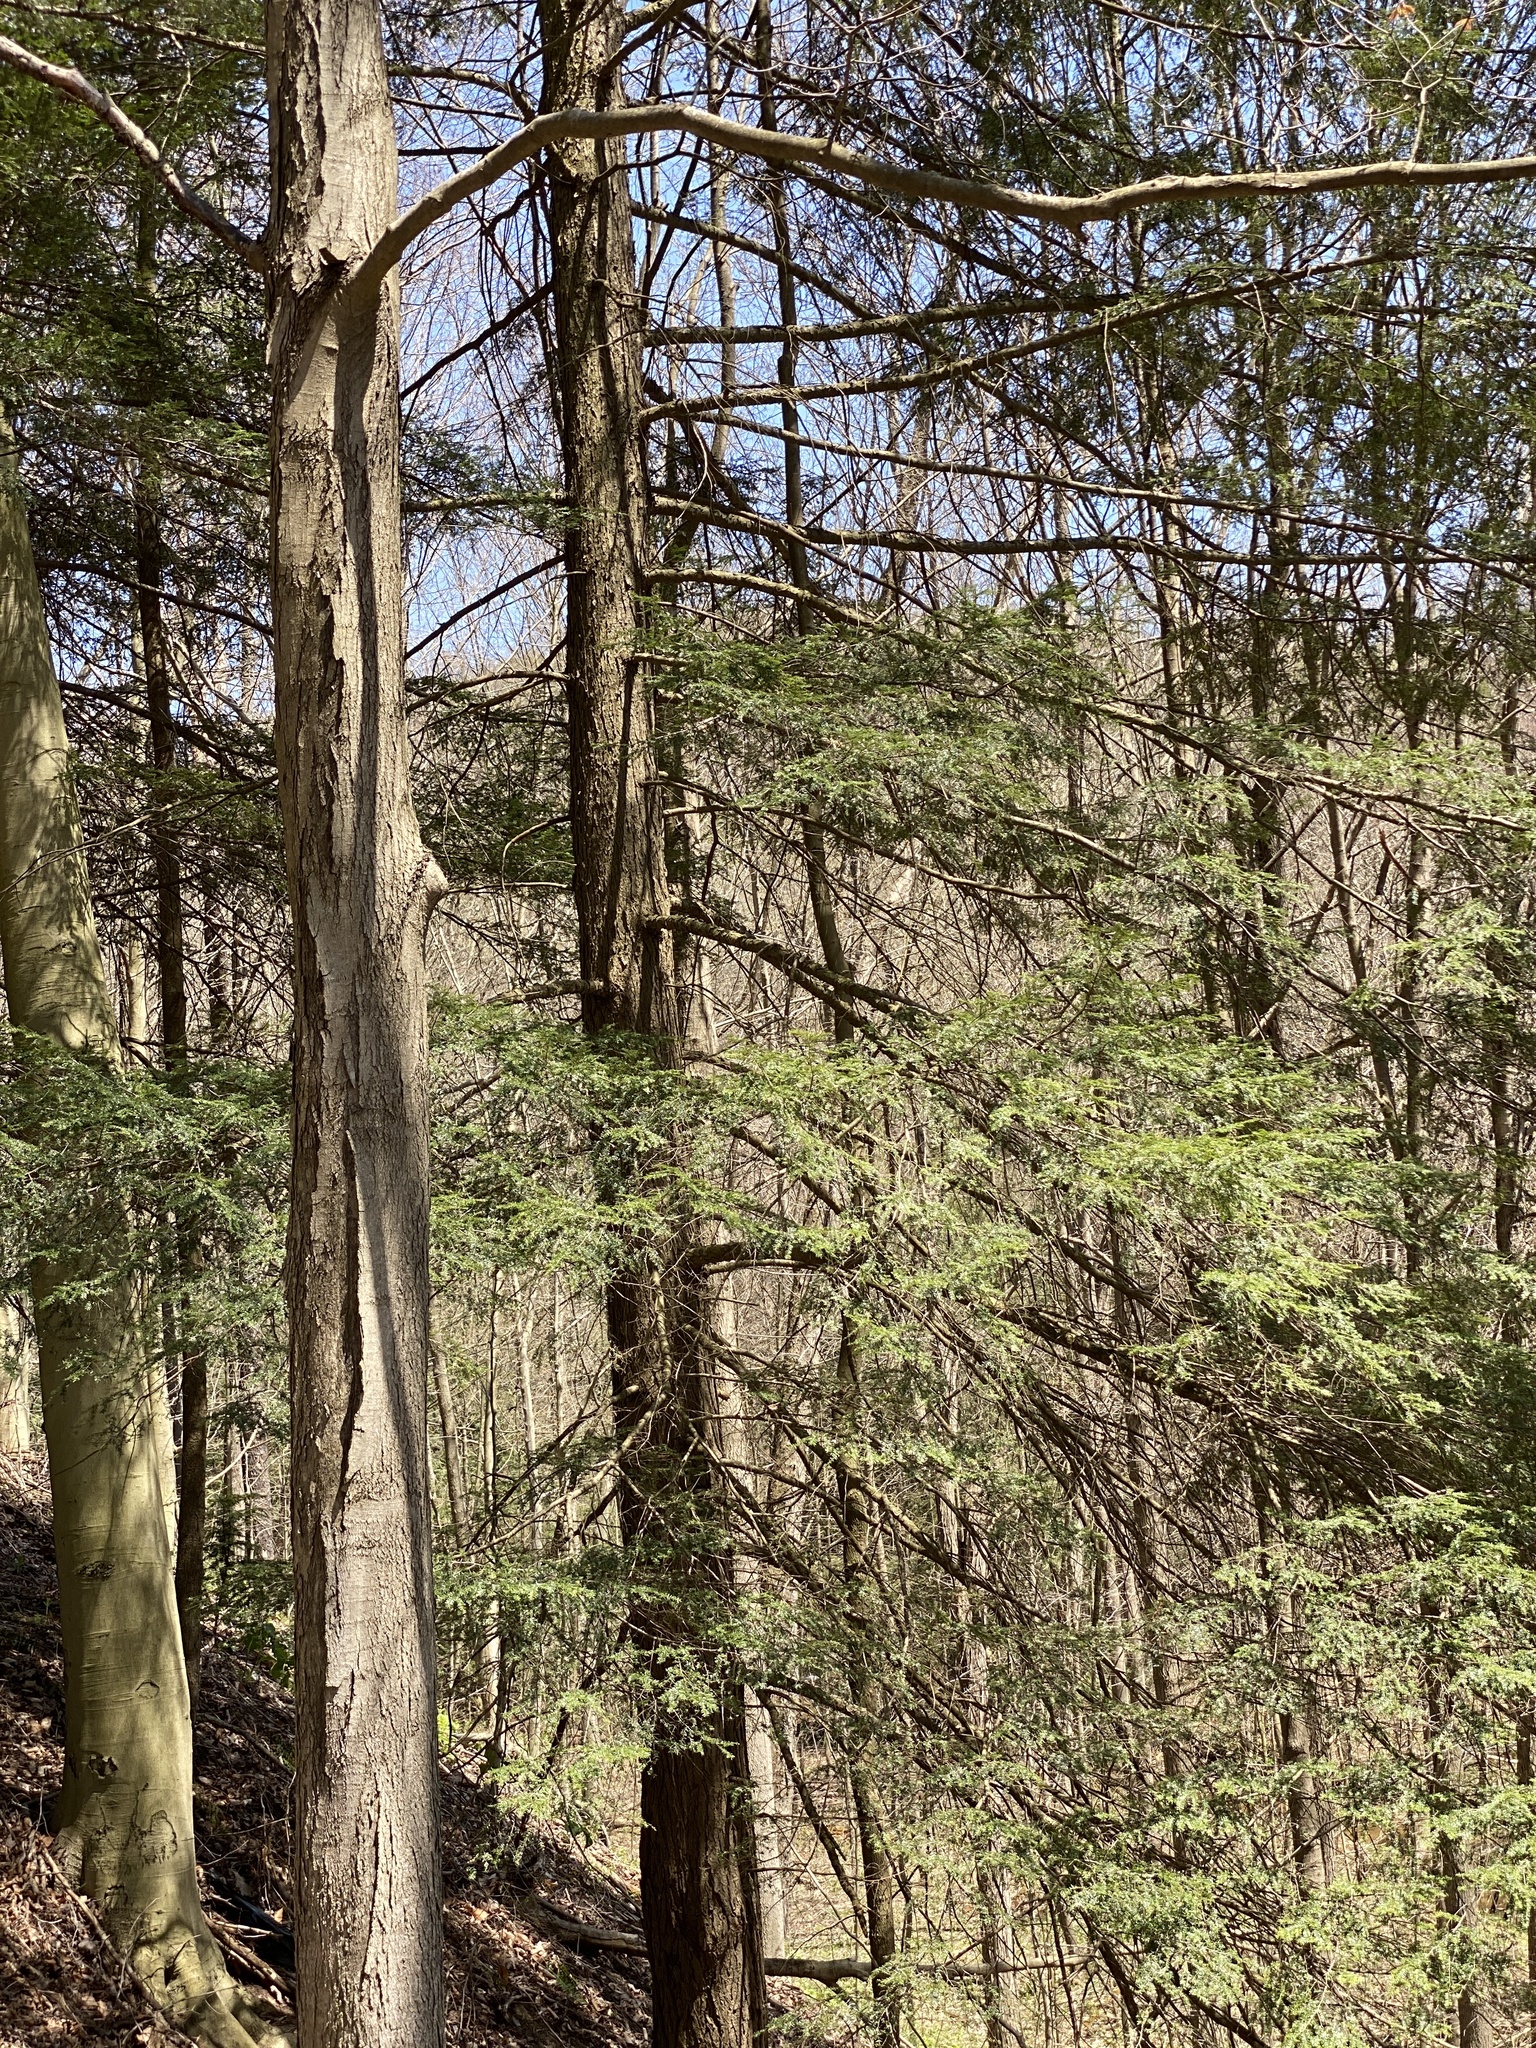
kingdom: Plantae
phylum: Tracheophyta
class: Pinopsida
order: Pinales
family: Pinaceae
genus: Tsuga
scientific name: Tsuga canadensis
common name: Eastern hemlock
